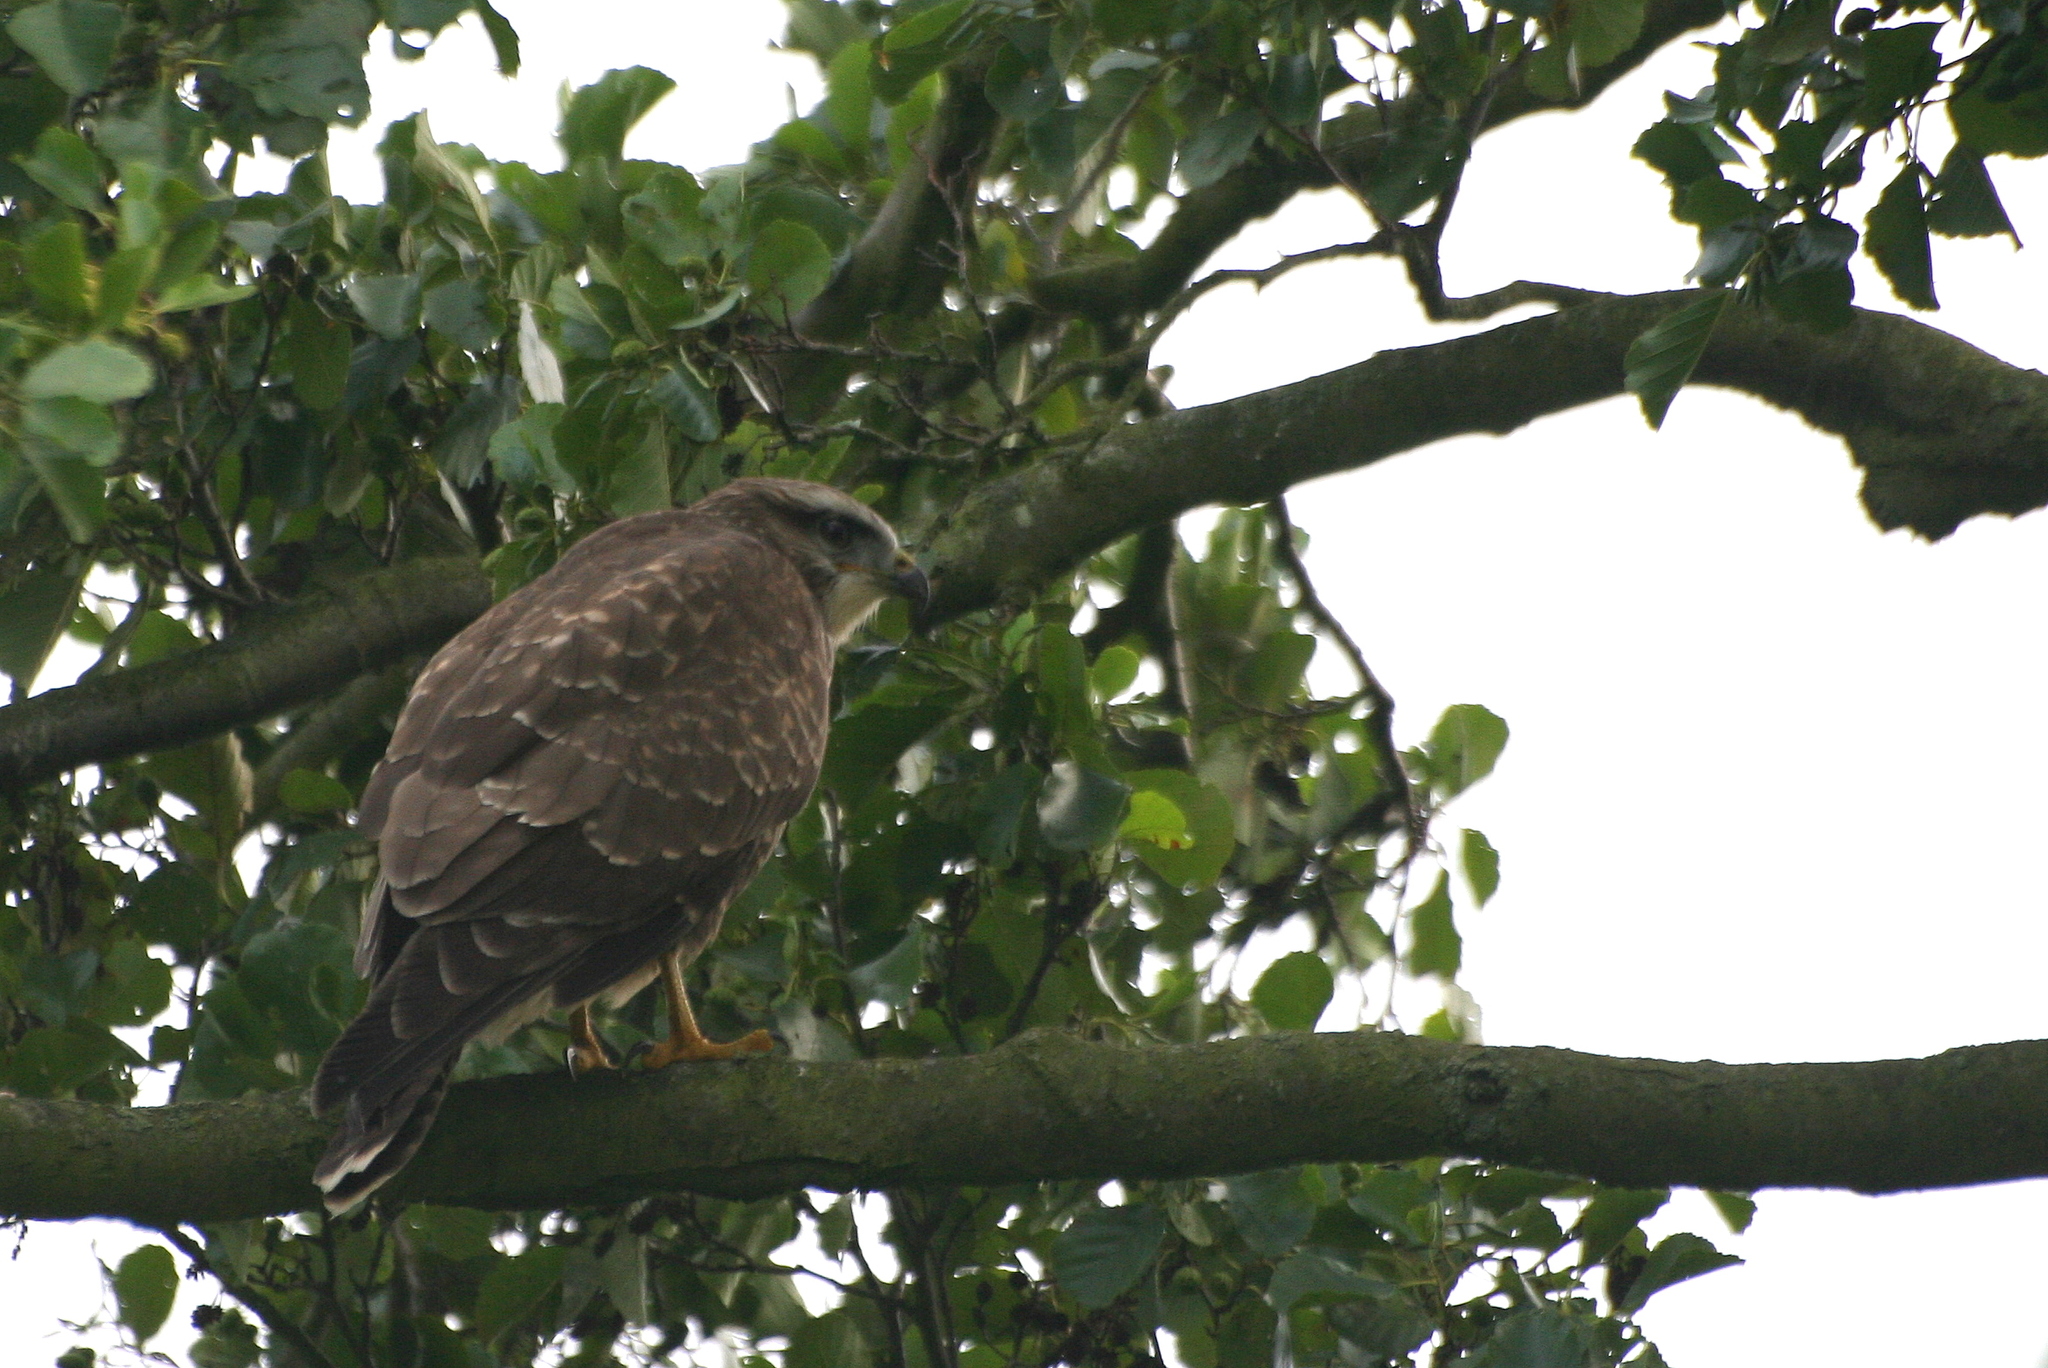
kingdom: Animalia
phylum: Chordata
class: Aves
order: Accipitriformes
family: Accipitridae
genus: Buteo
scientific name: Buteo buteo
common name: Common buzzard
